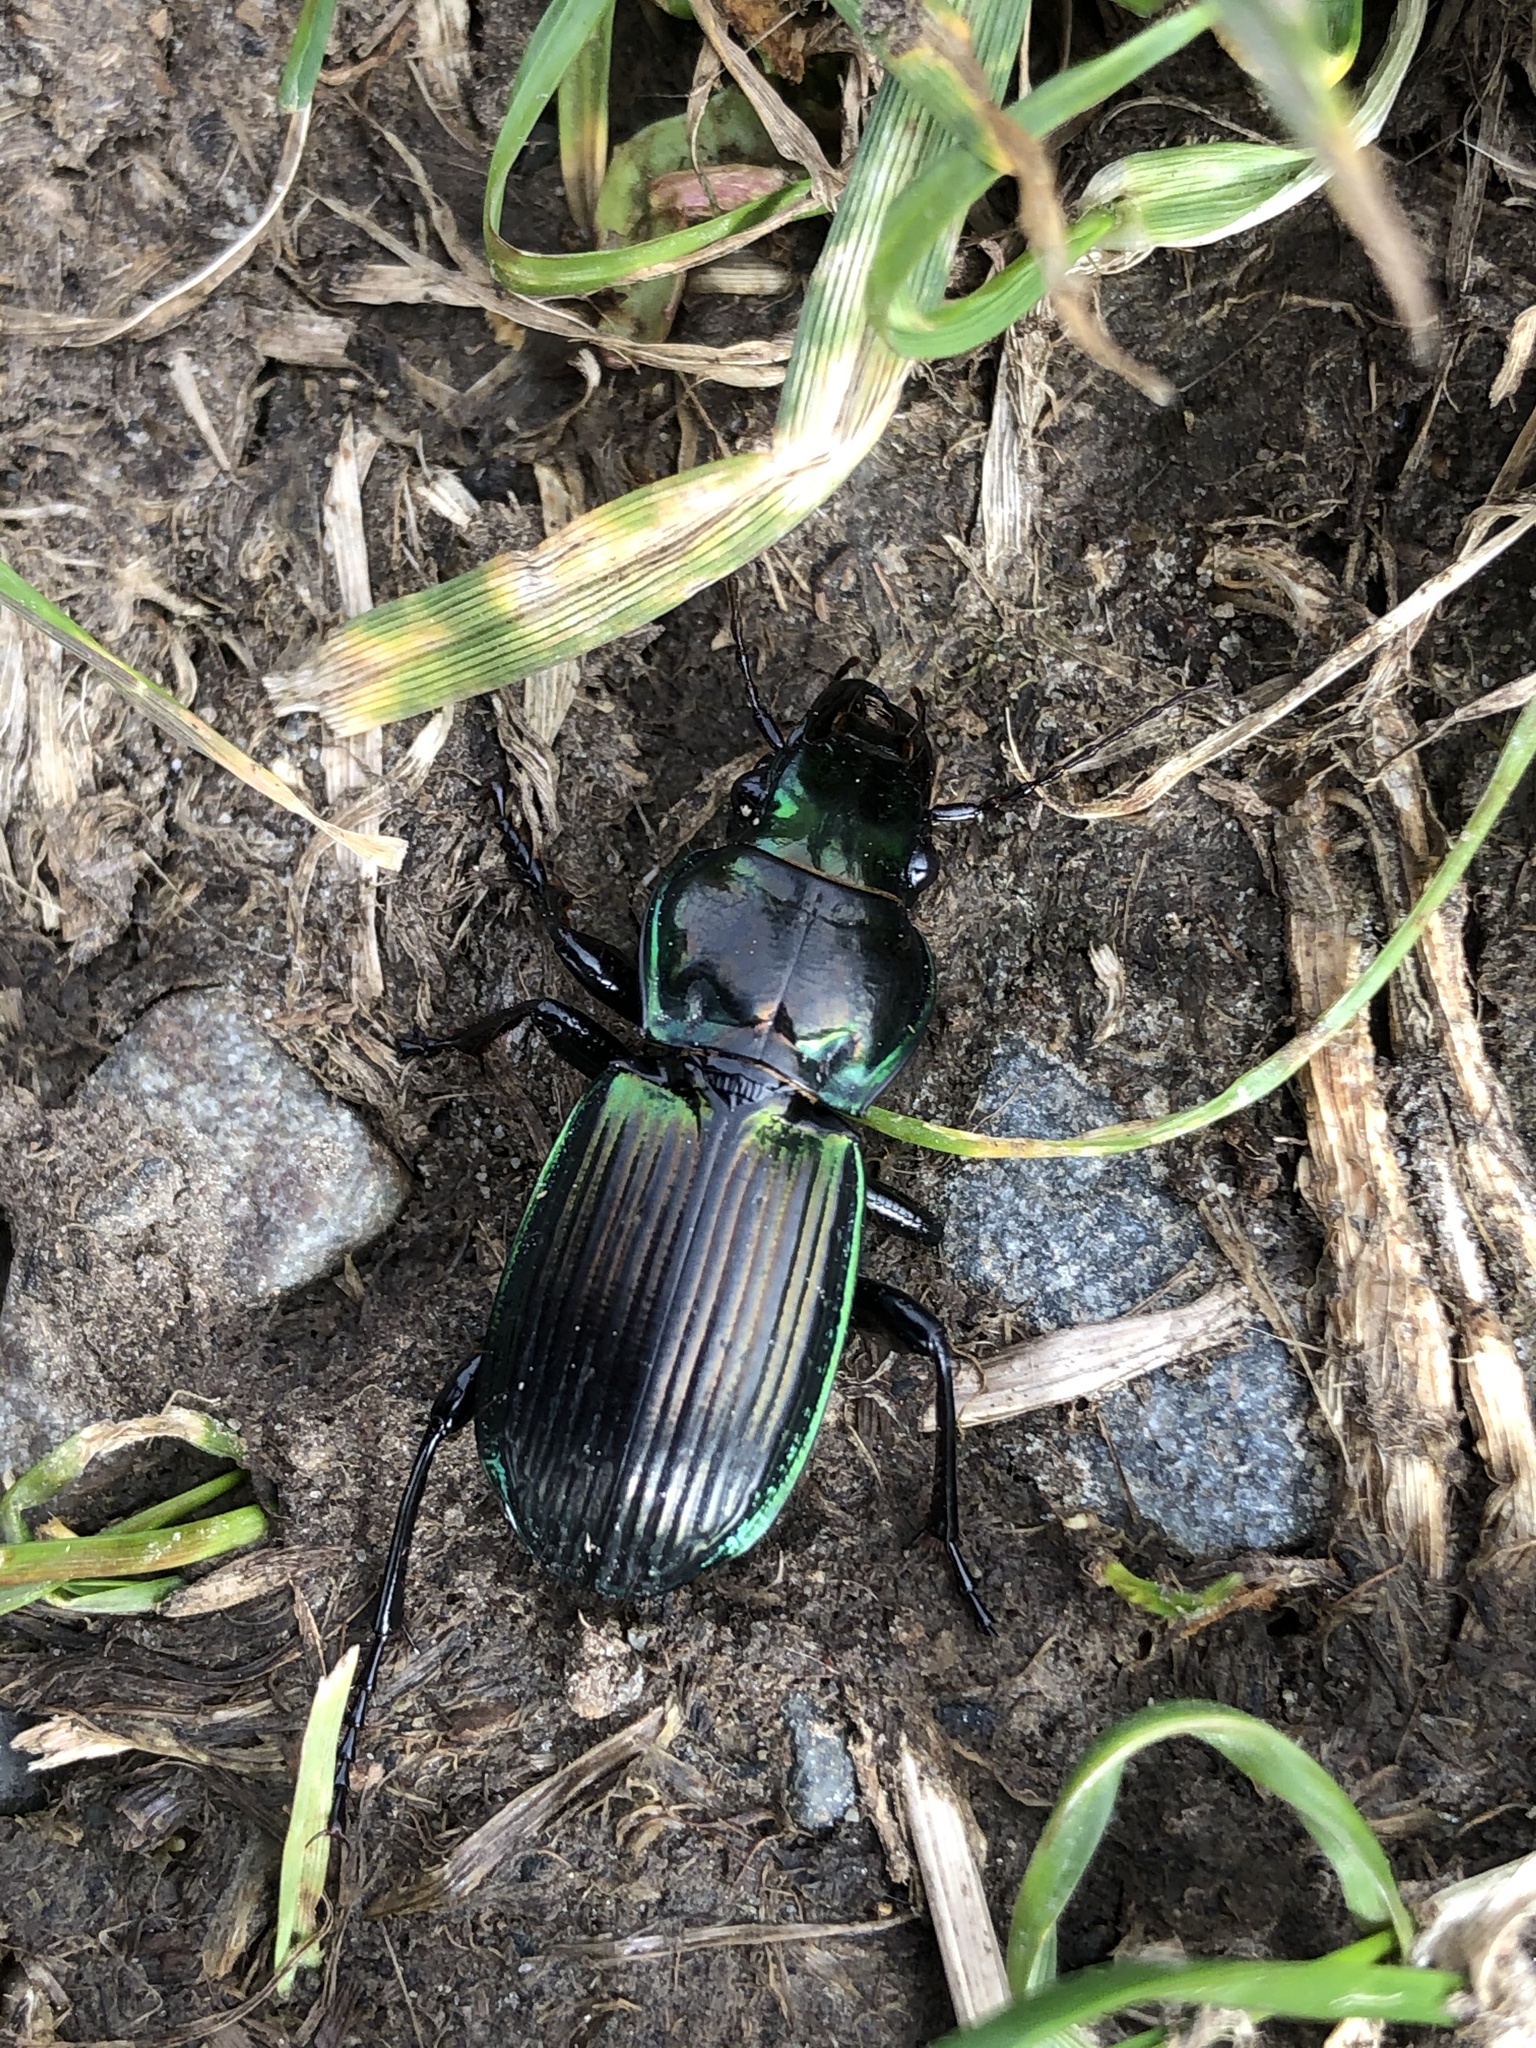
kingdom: Animalia
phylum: Arthropoda
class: Insecta
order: Coleoptera
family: Carabidae
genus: Megadromus
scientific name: Megadromus antarcticus
